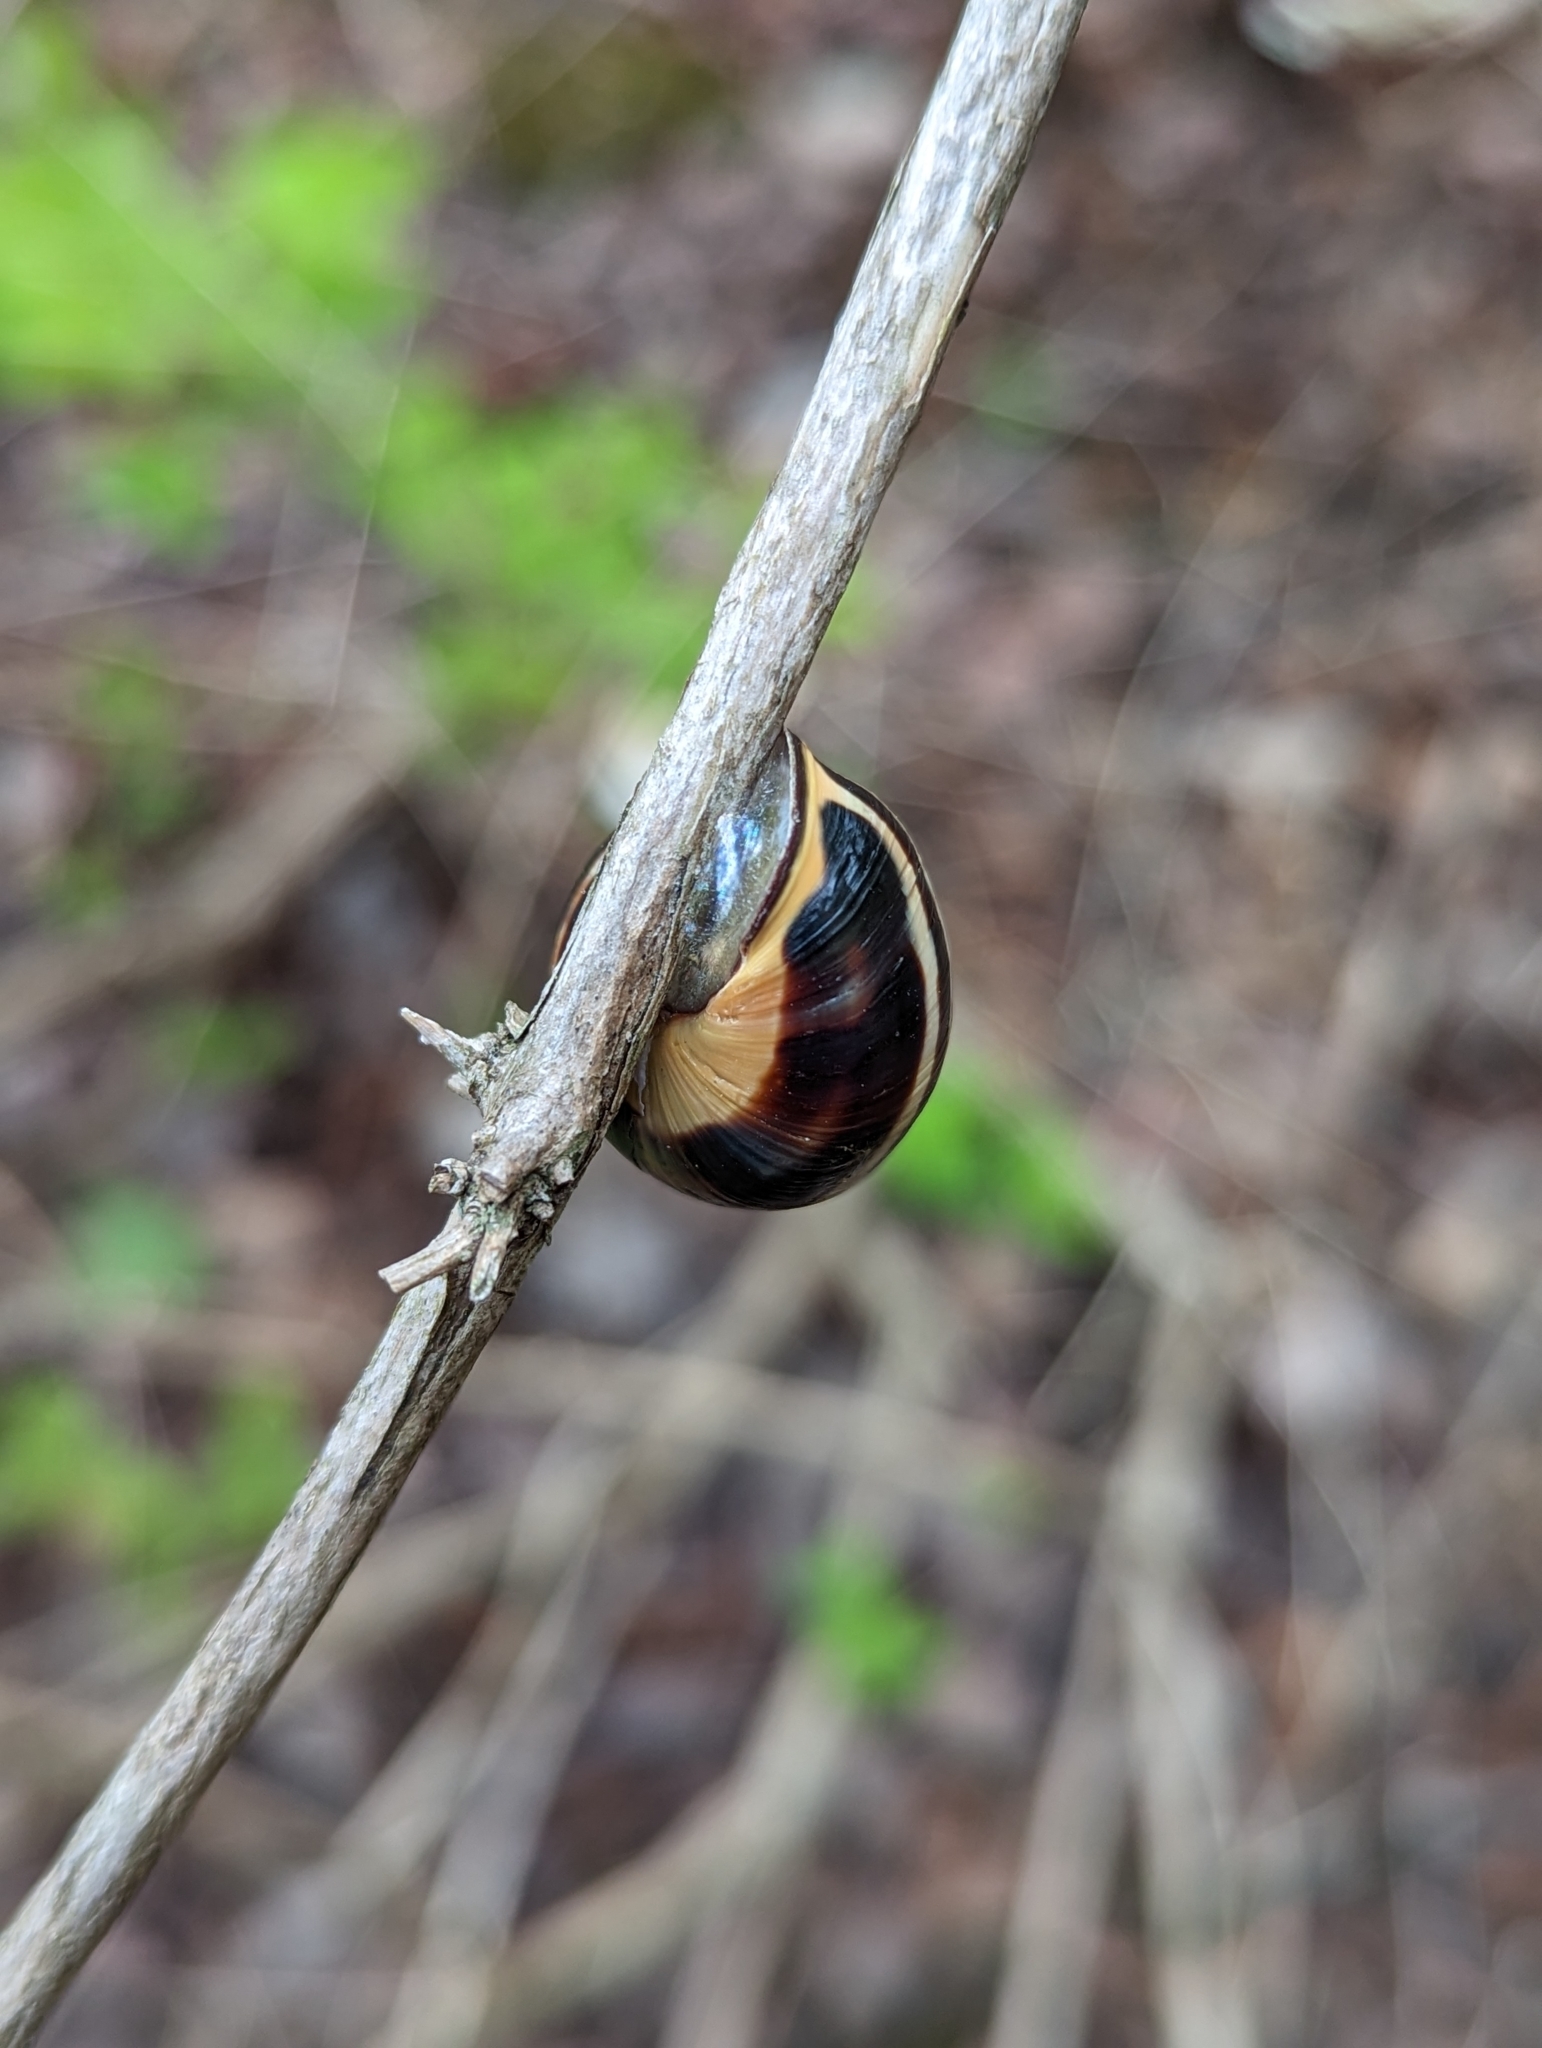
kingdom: Animalia
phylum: Mollusca
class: Gastropoda
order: Stylommatophora
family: Helicidae
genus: Cepaea
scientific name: Cepaea nemoralis
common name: Grovesnail
